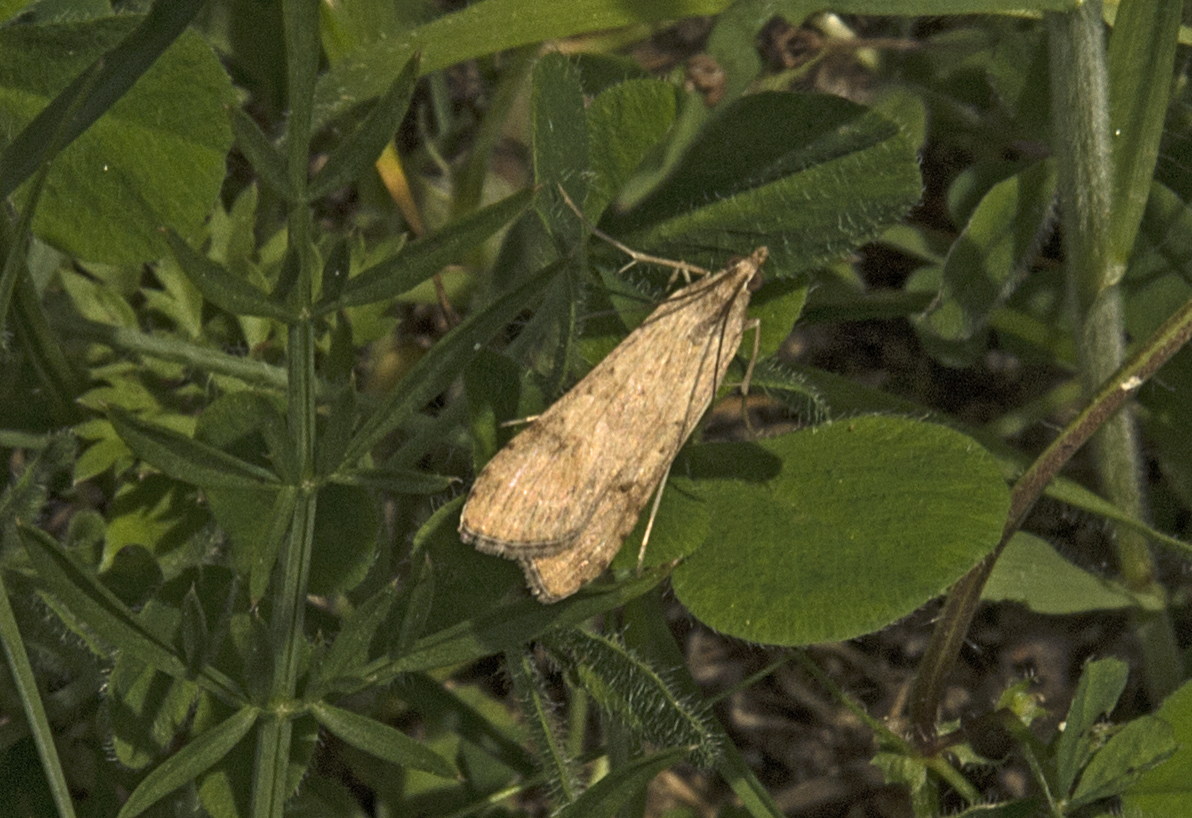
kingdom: Animalia
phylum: Arthropoda
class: Insecta
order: Lepidoptera
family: Crambidae
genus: Nomophila
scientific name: Nomophila noctuella
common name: Rush veneer
